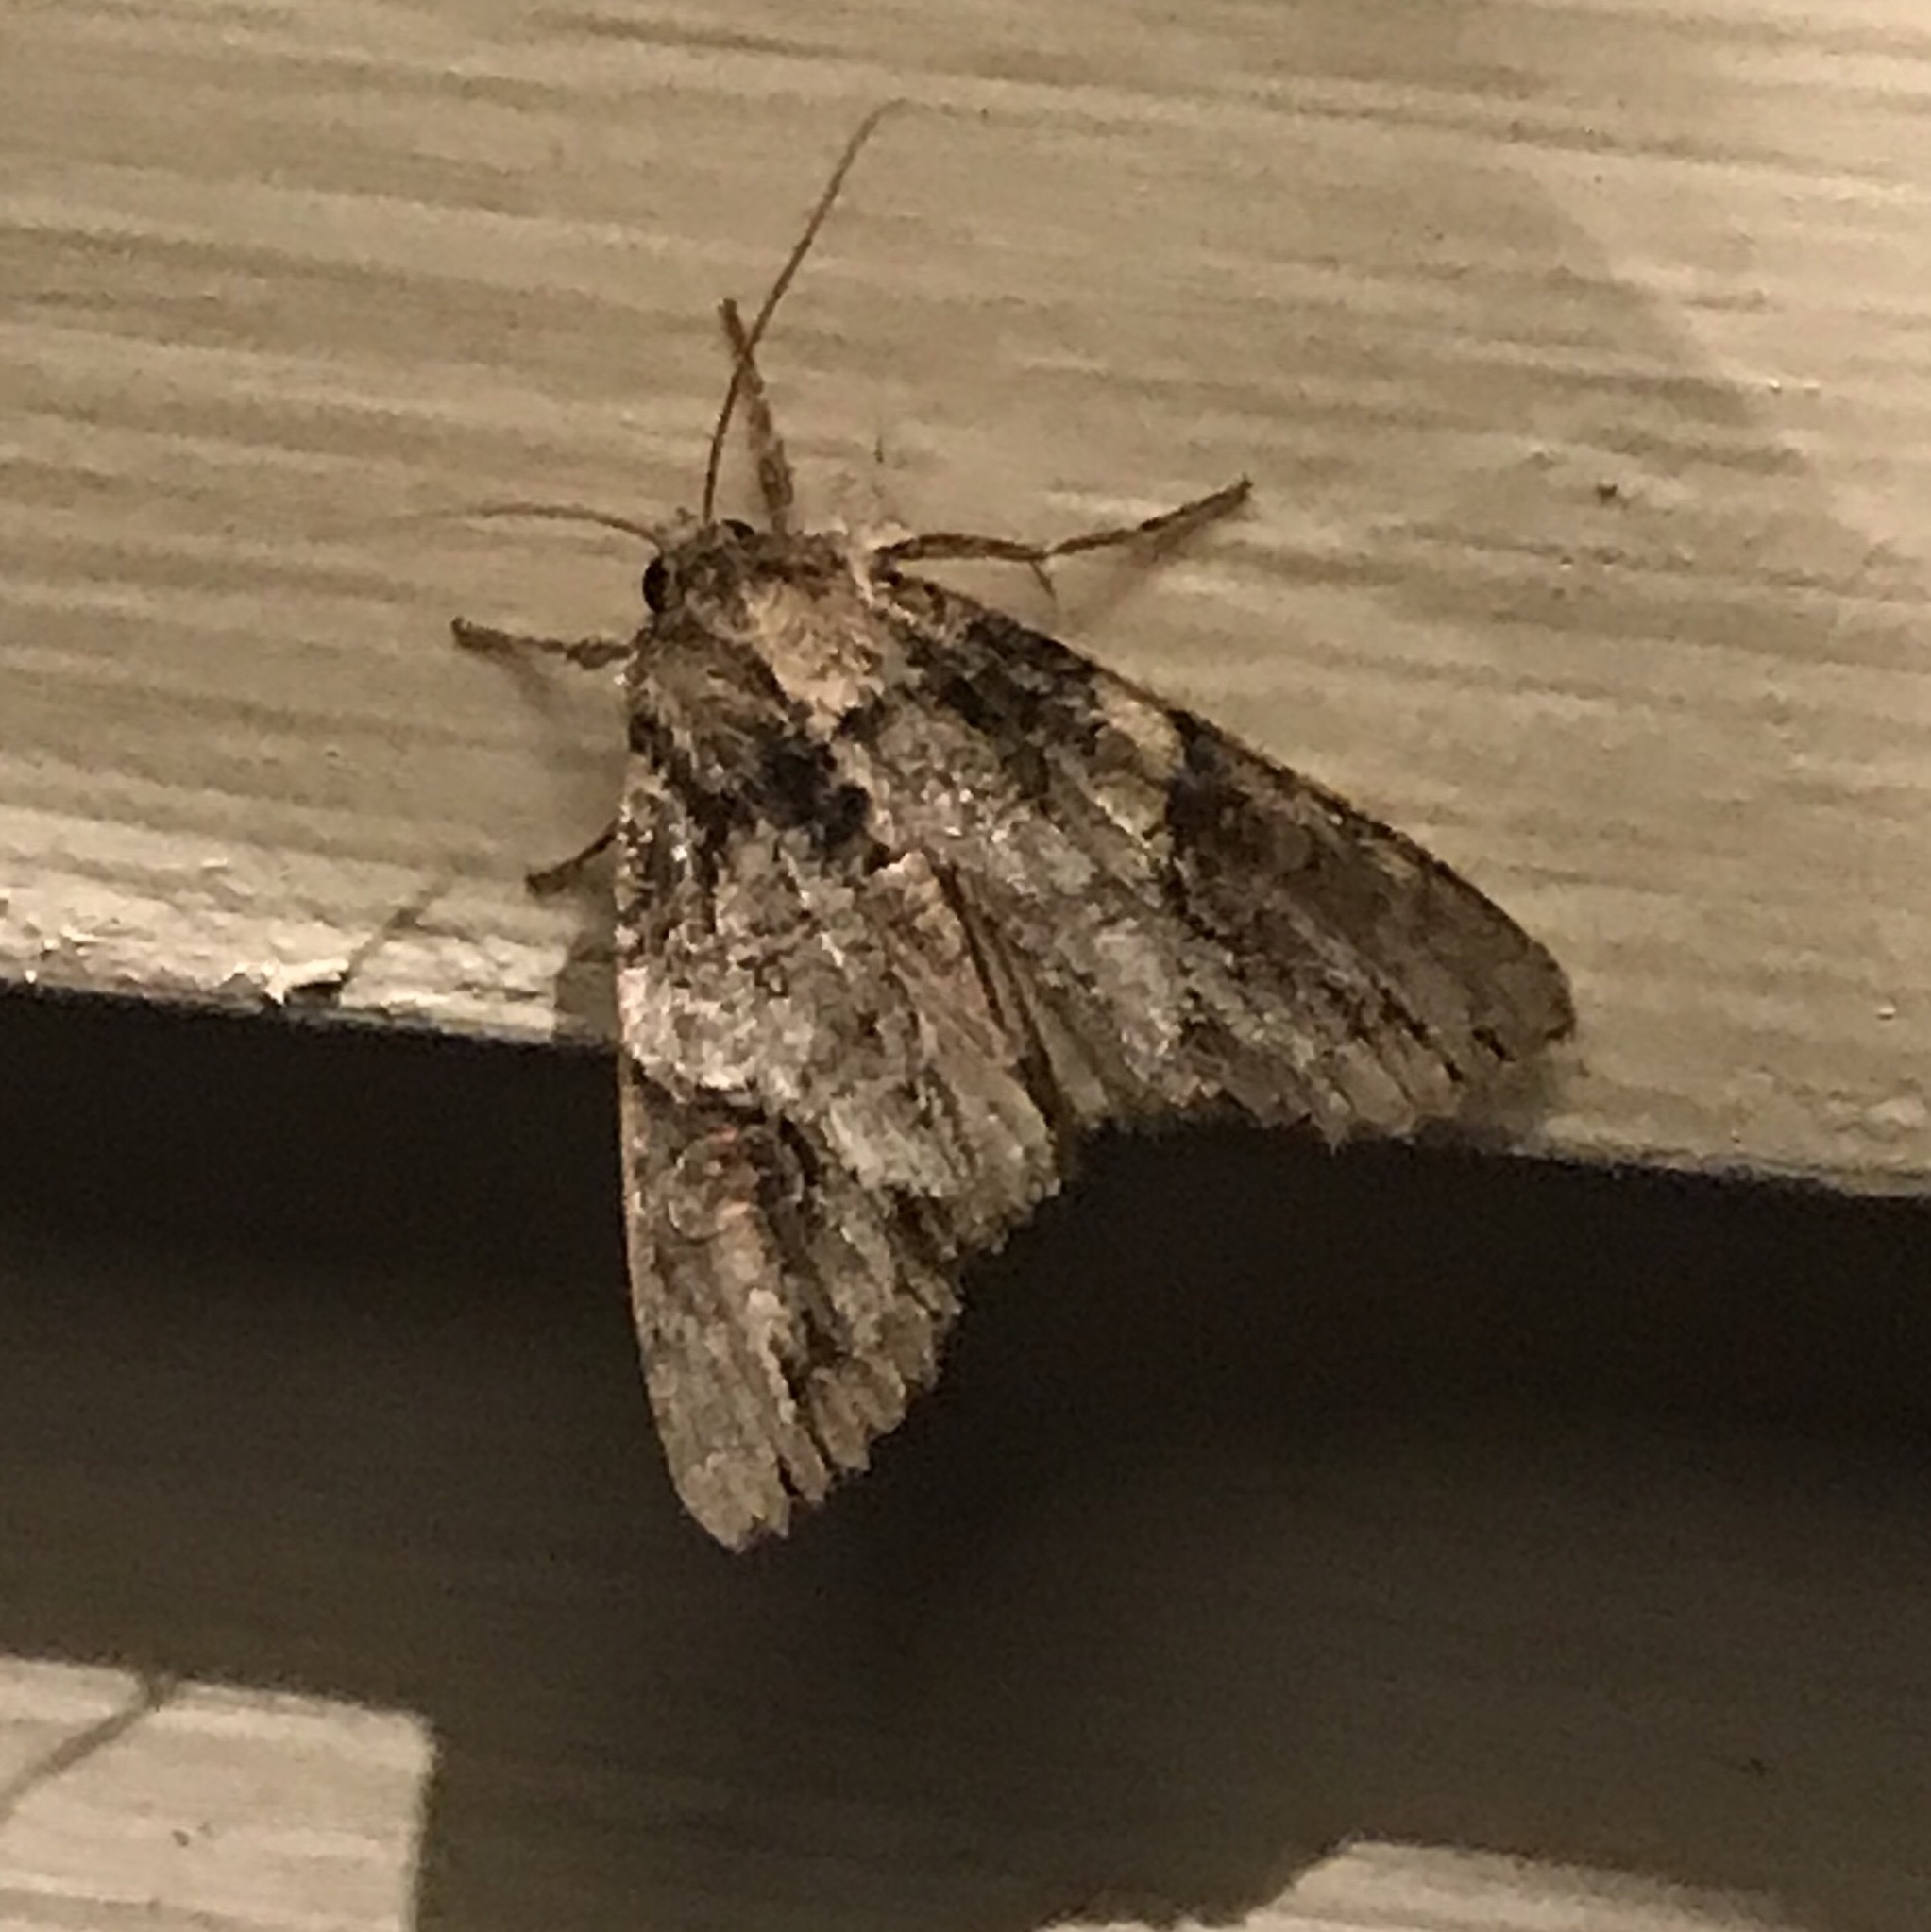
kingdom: Animalia
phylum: Arthropoda
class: Insecta
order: Lepidoptera
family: Noctuidae
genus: Achatia
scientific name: Achatia latex
